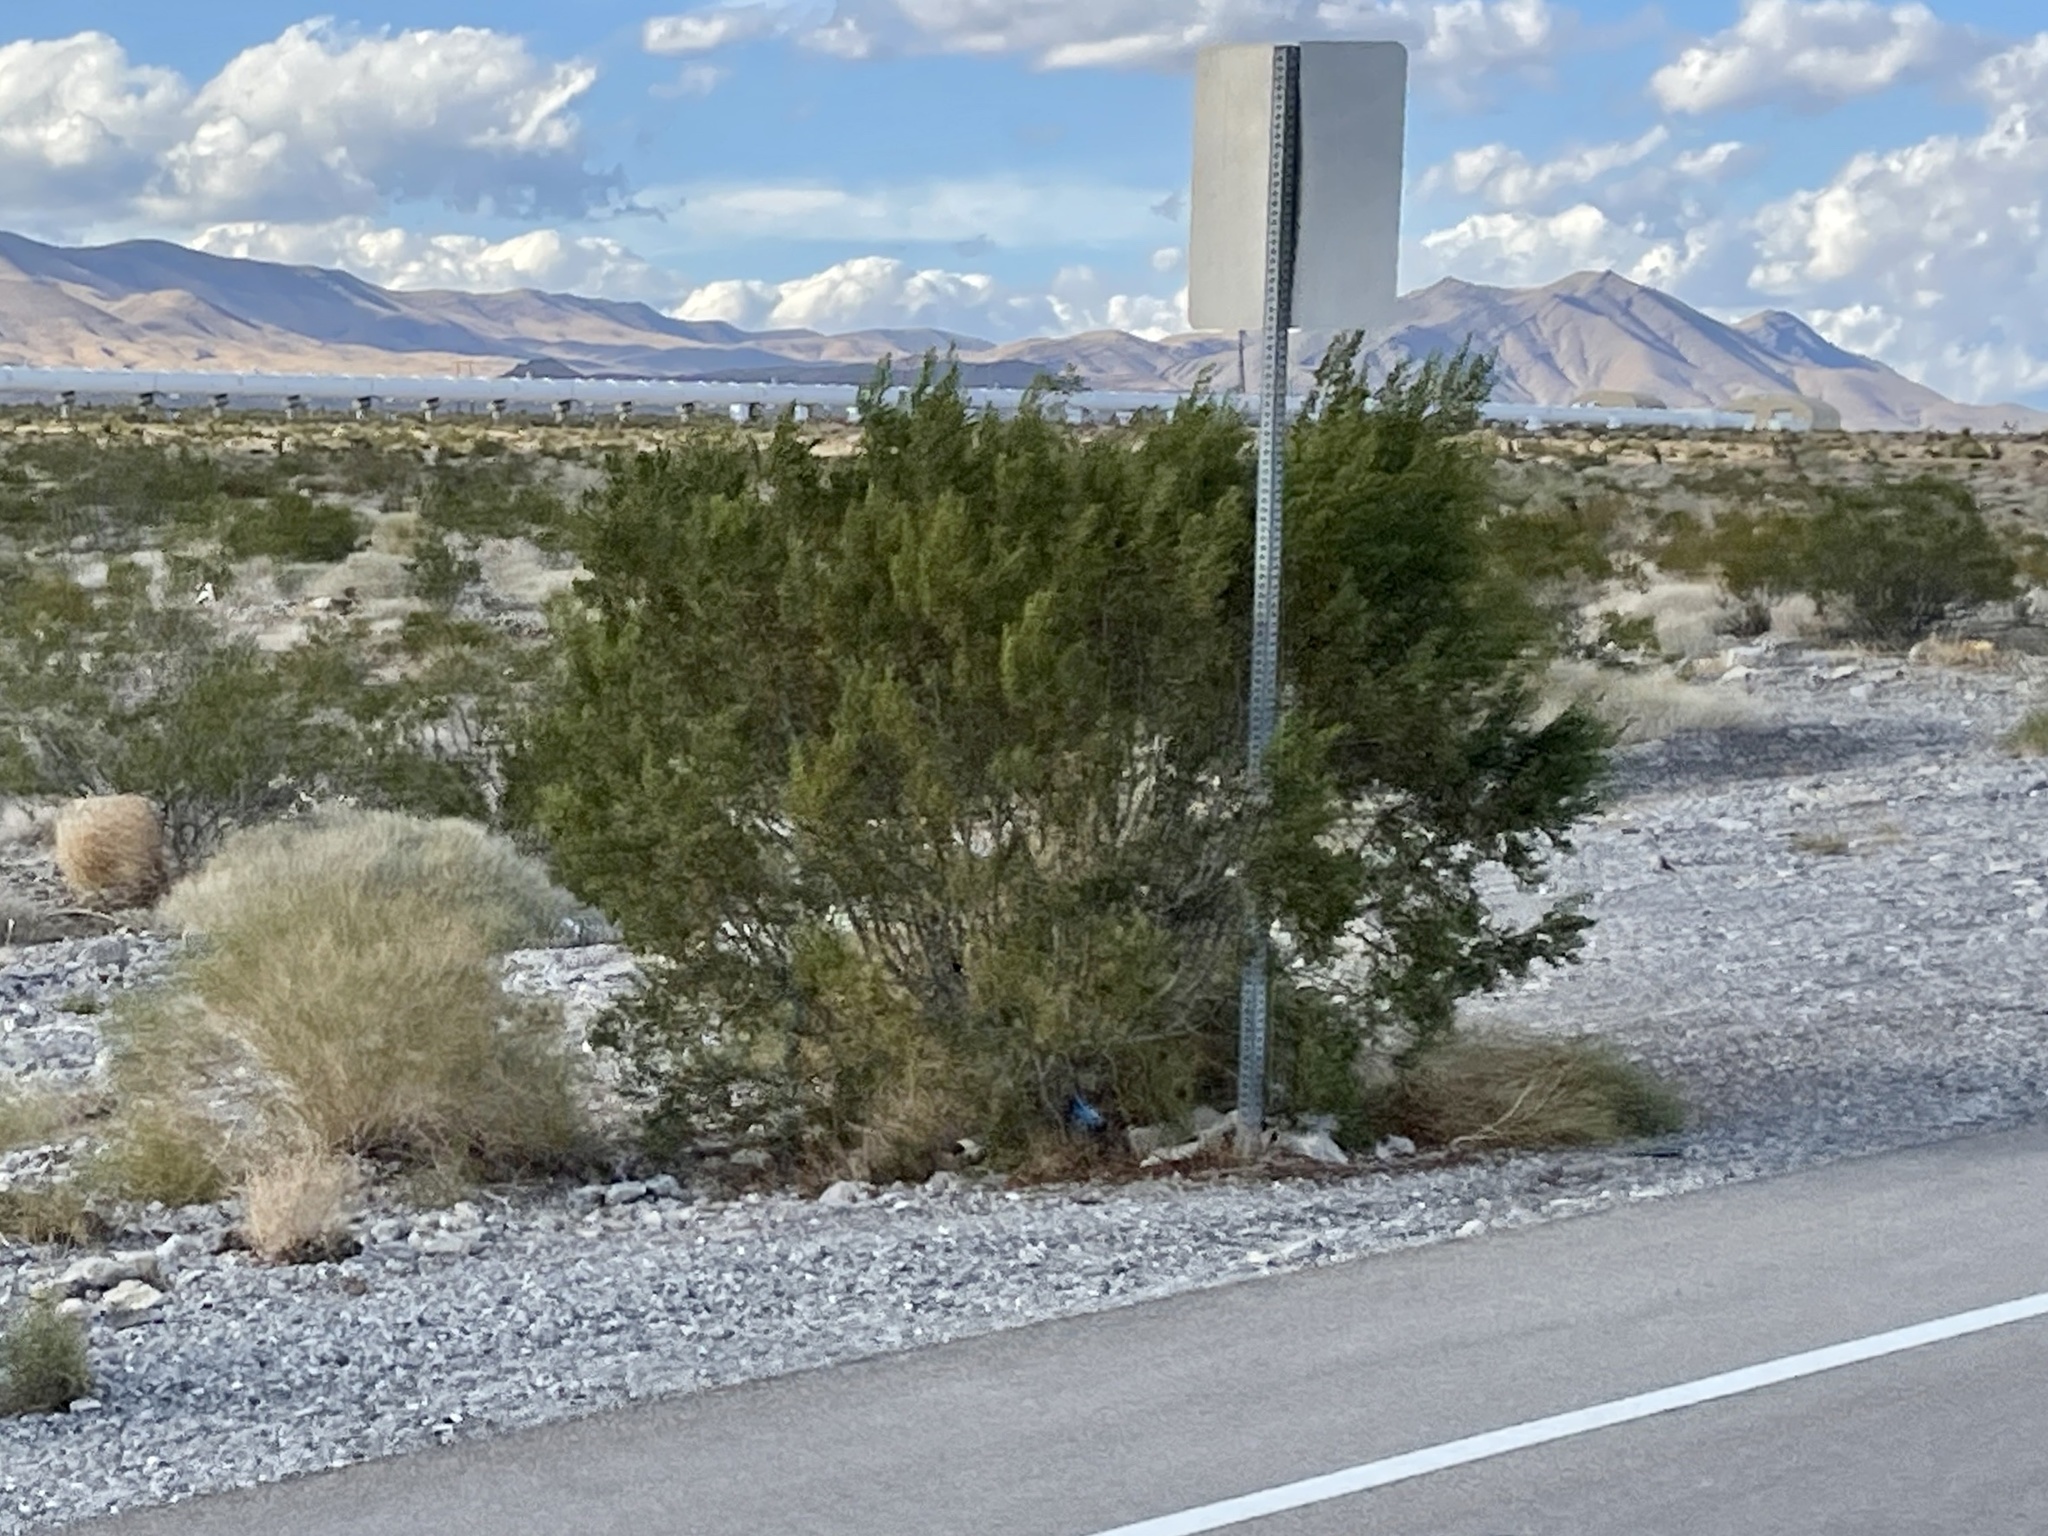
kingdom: Plantae
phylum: Tracheophyta
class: Magnoliopsida
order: Zygophyllales
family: Zygophyllaceae
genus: Larrea
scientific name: Larrea tridentata
